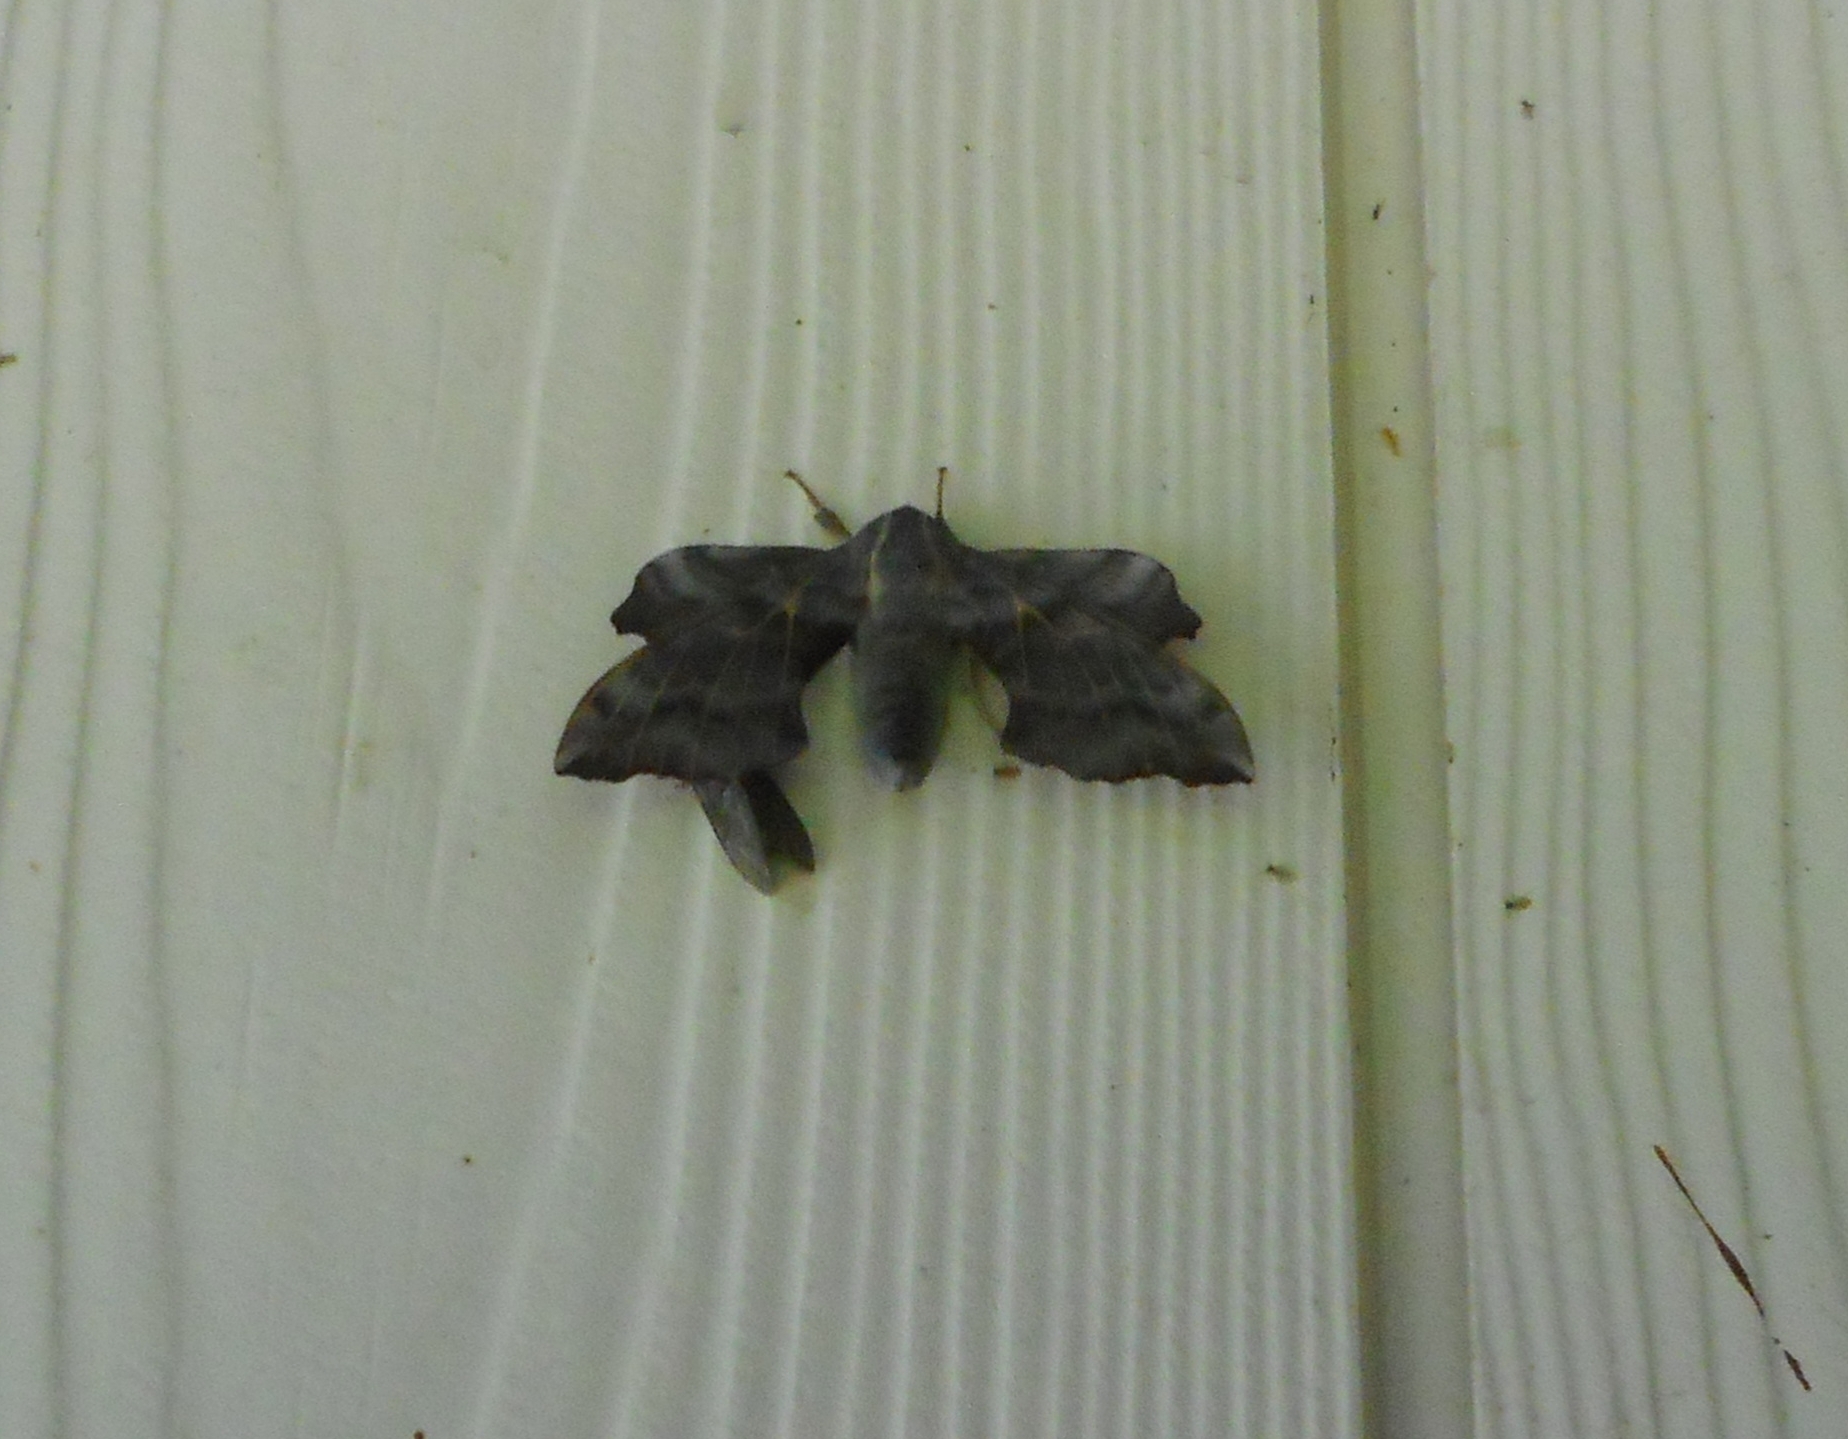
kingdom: Animalia
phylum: Arthropoda
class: Insecta
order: Lepidoptera
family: Sphingidae
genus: Laothoe
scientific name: Laothoe amurensis
